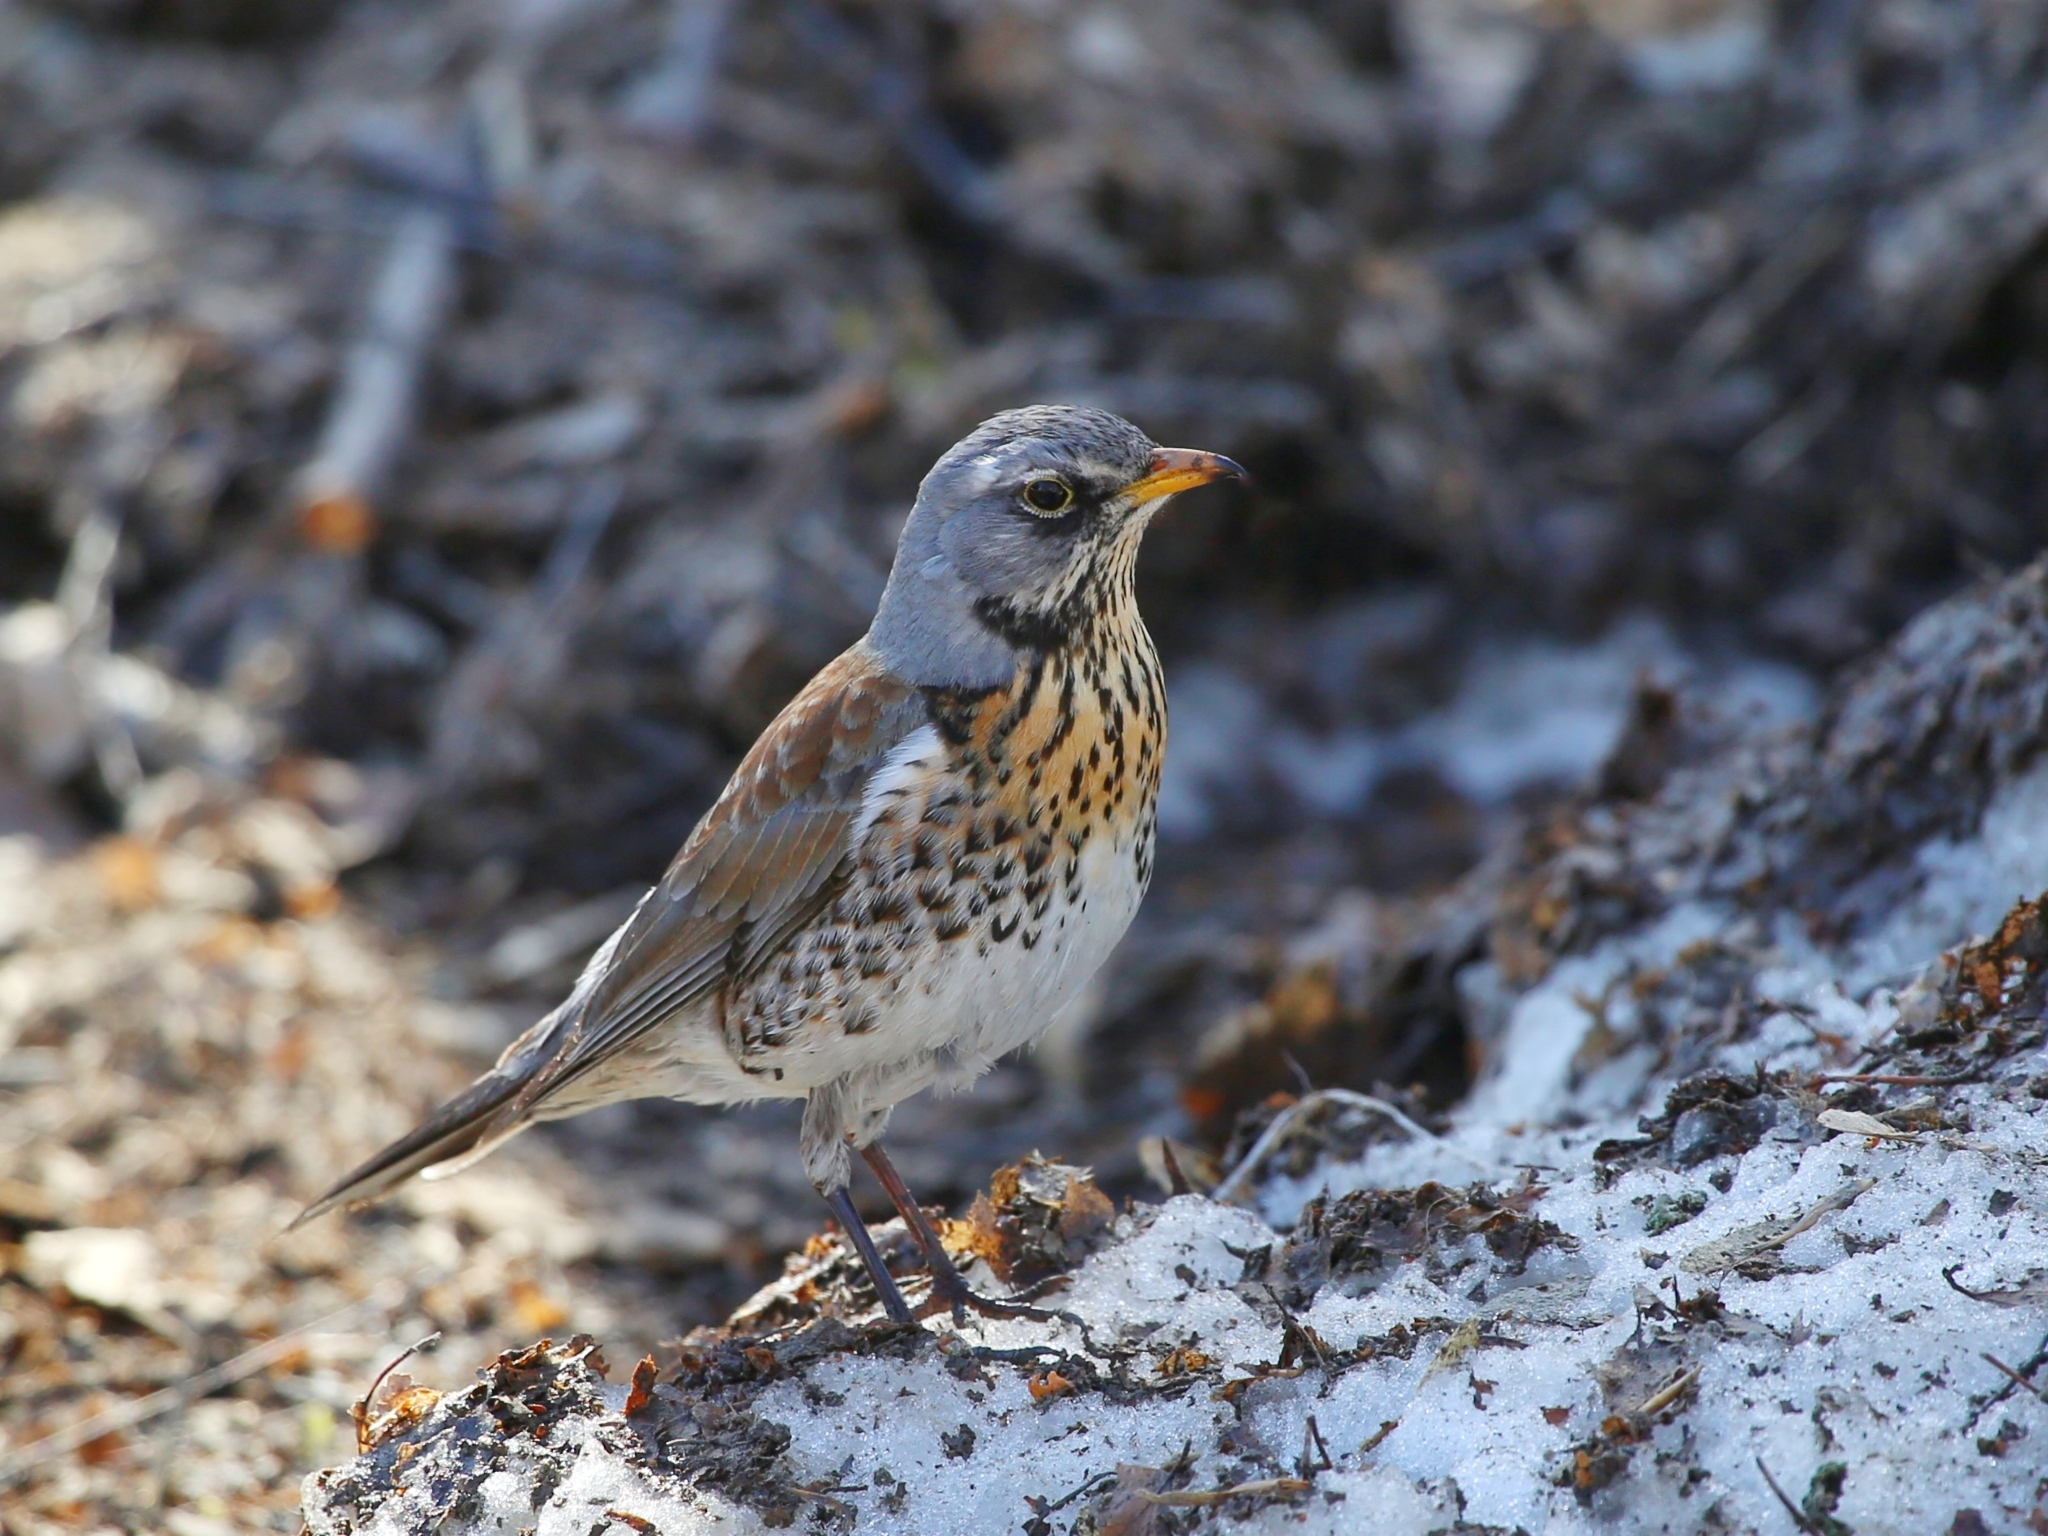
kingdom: Animalia
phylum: Chordata
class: Aves
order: Passeriformes
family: Turdidae
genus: Turdus
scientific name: Turdus pilaris
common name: Fieldfare
